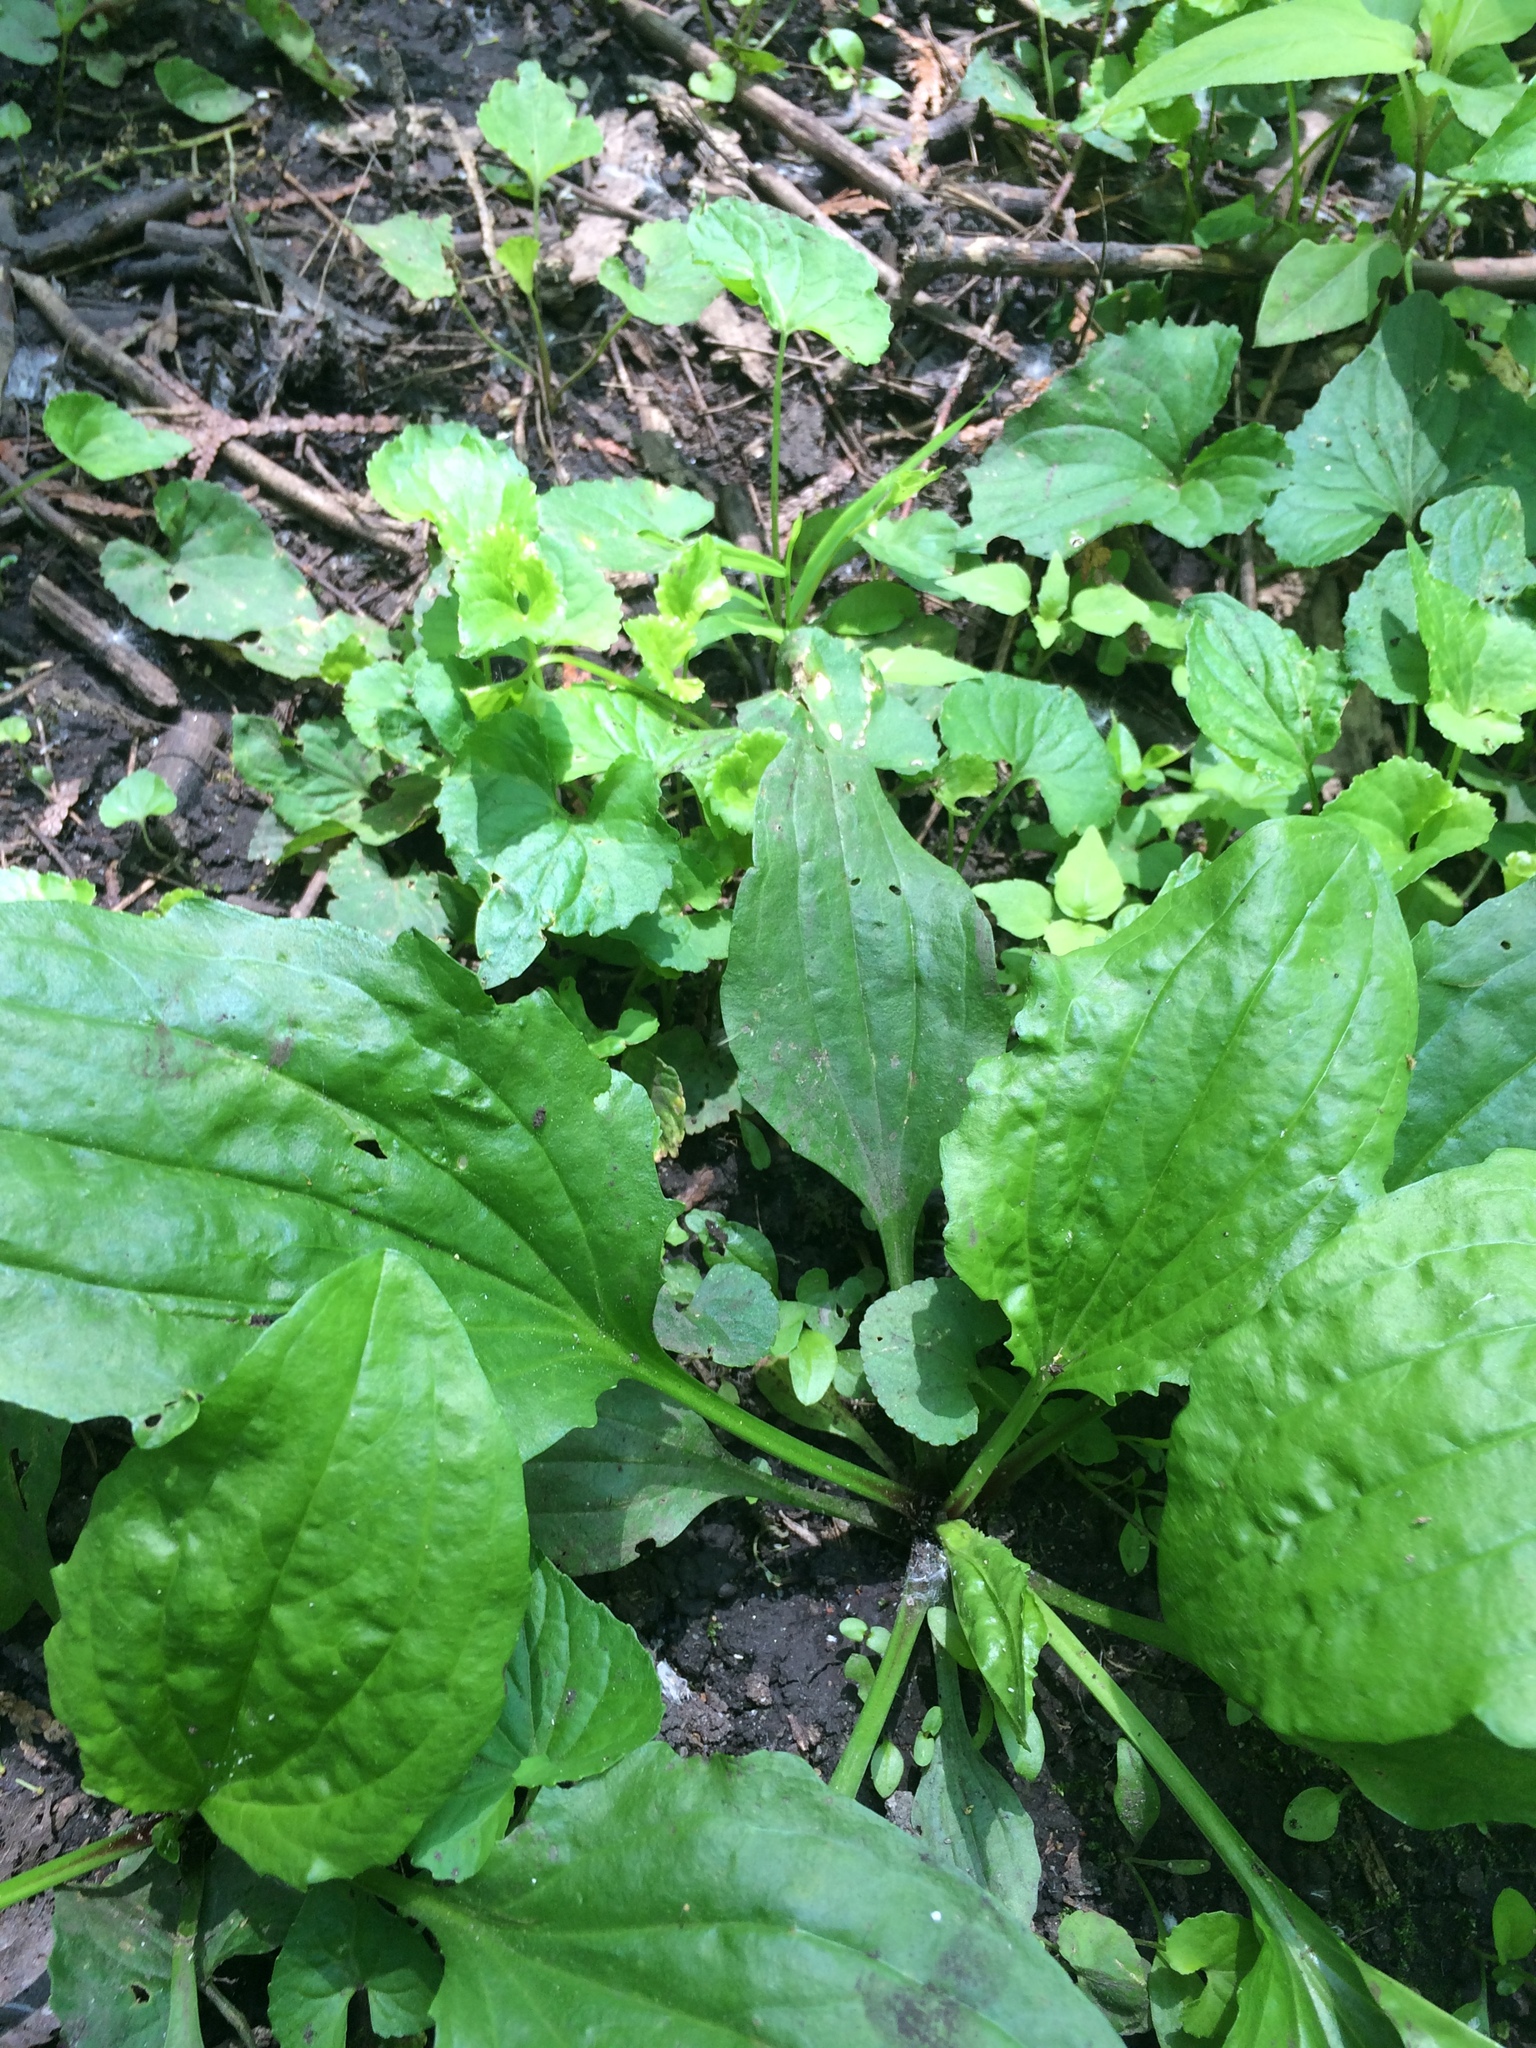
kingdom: Plantae
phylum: Tracheophyta
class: Magnoliopsida
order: Lamiales
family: Plantaginaceae
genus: Plantago
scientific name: Plantago rugelii
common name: American plantain
